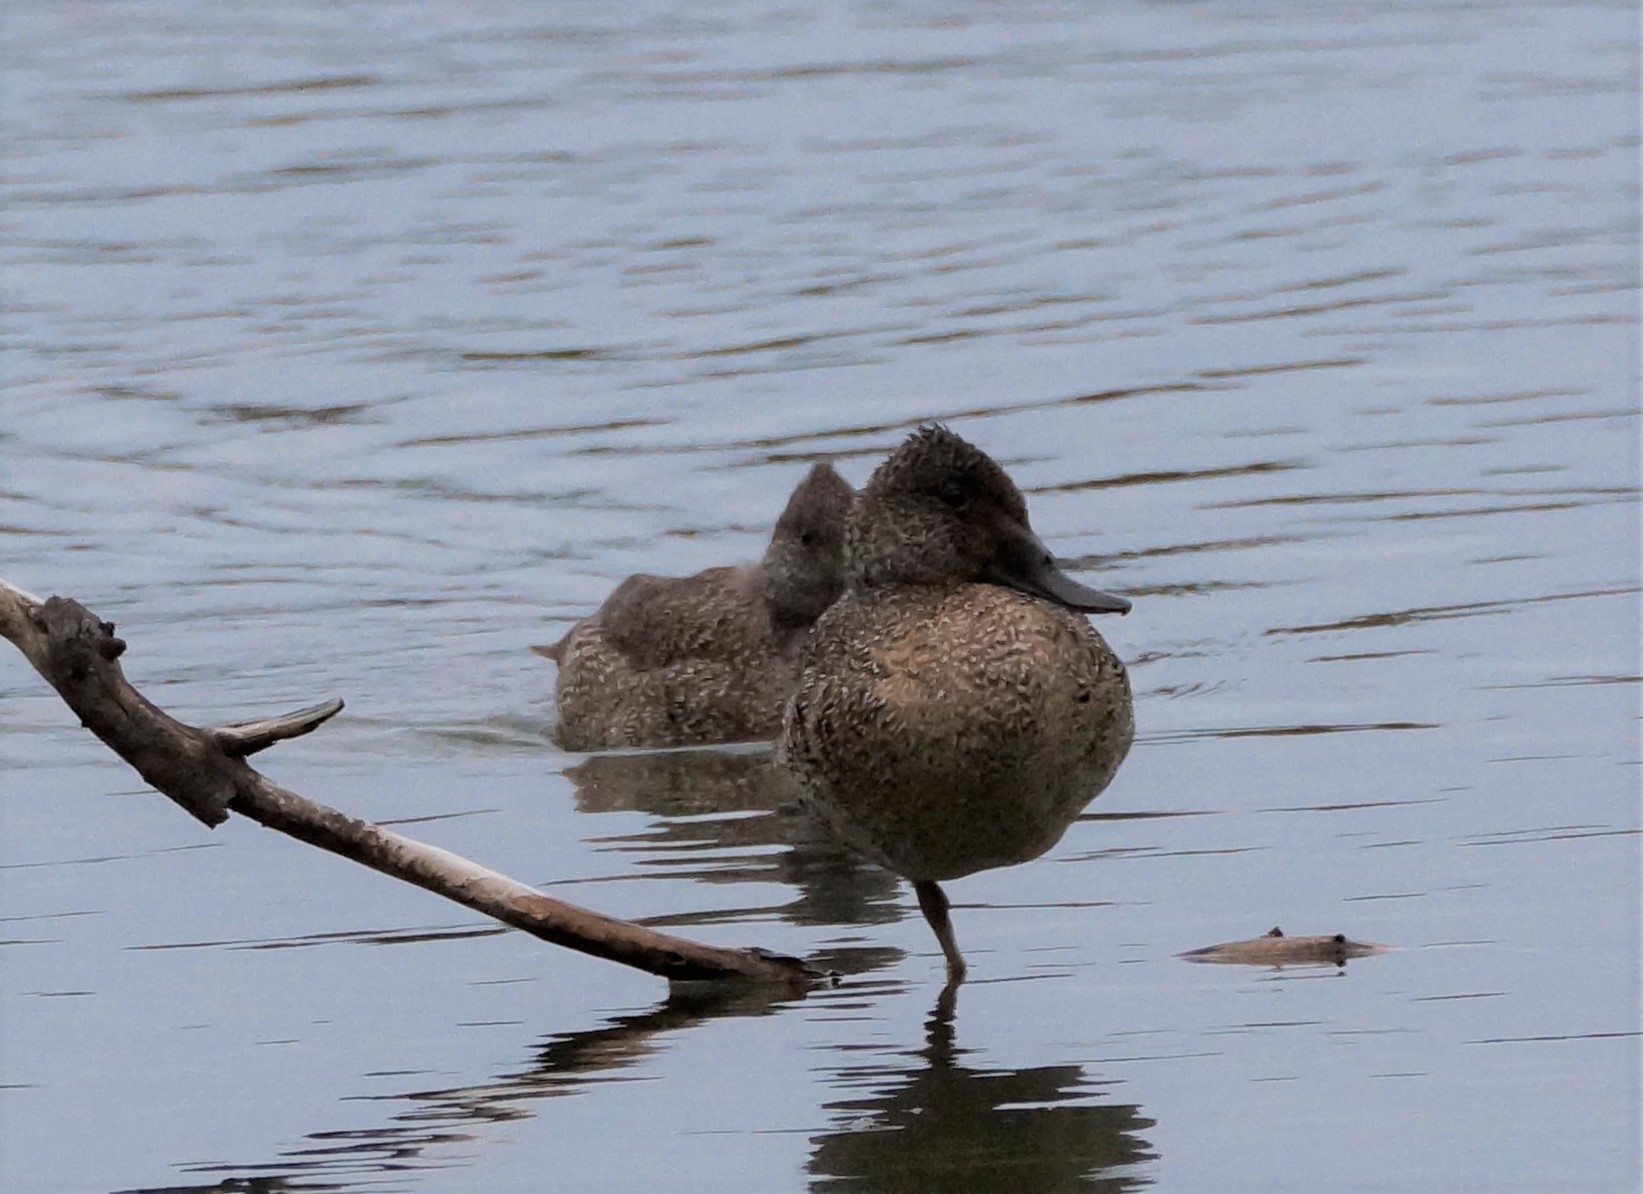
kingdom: Animalia
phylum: Chordata
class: Aves
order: Anseriformes
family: Anatidae
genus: Stictonetta
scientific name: Stictonetta naevosa
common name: Freckled duck
